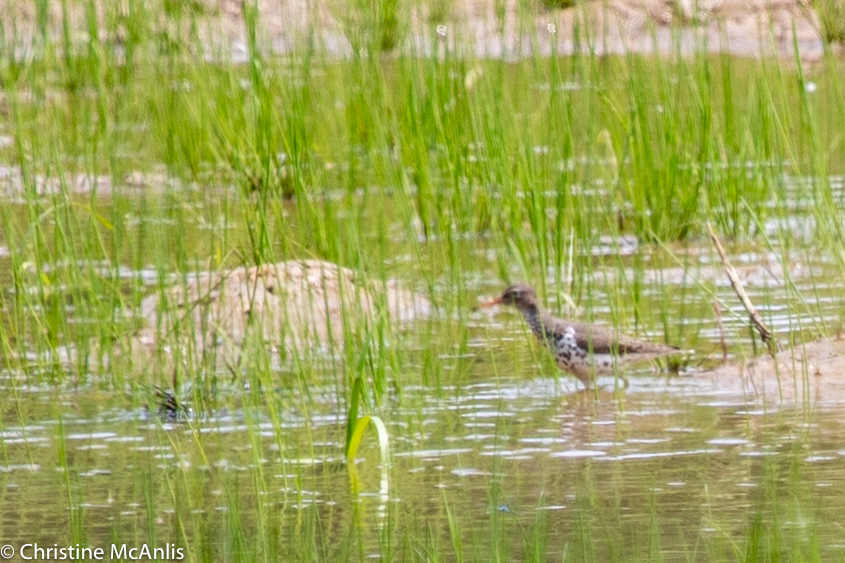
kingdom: Animalia
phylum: Chordata
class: Aves
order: Charadriiformes
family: Scolopacidae
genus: Actitis
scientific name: Actitis macularius
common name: Spotted sandpiper
